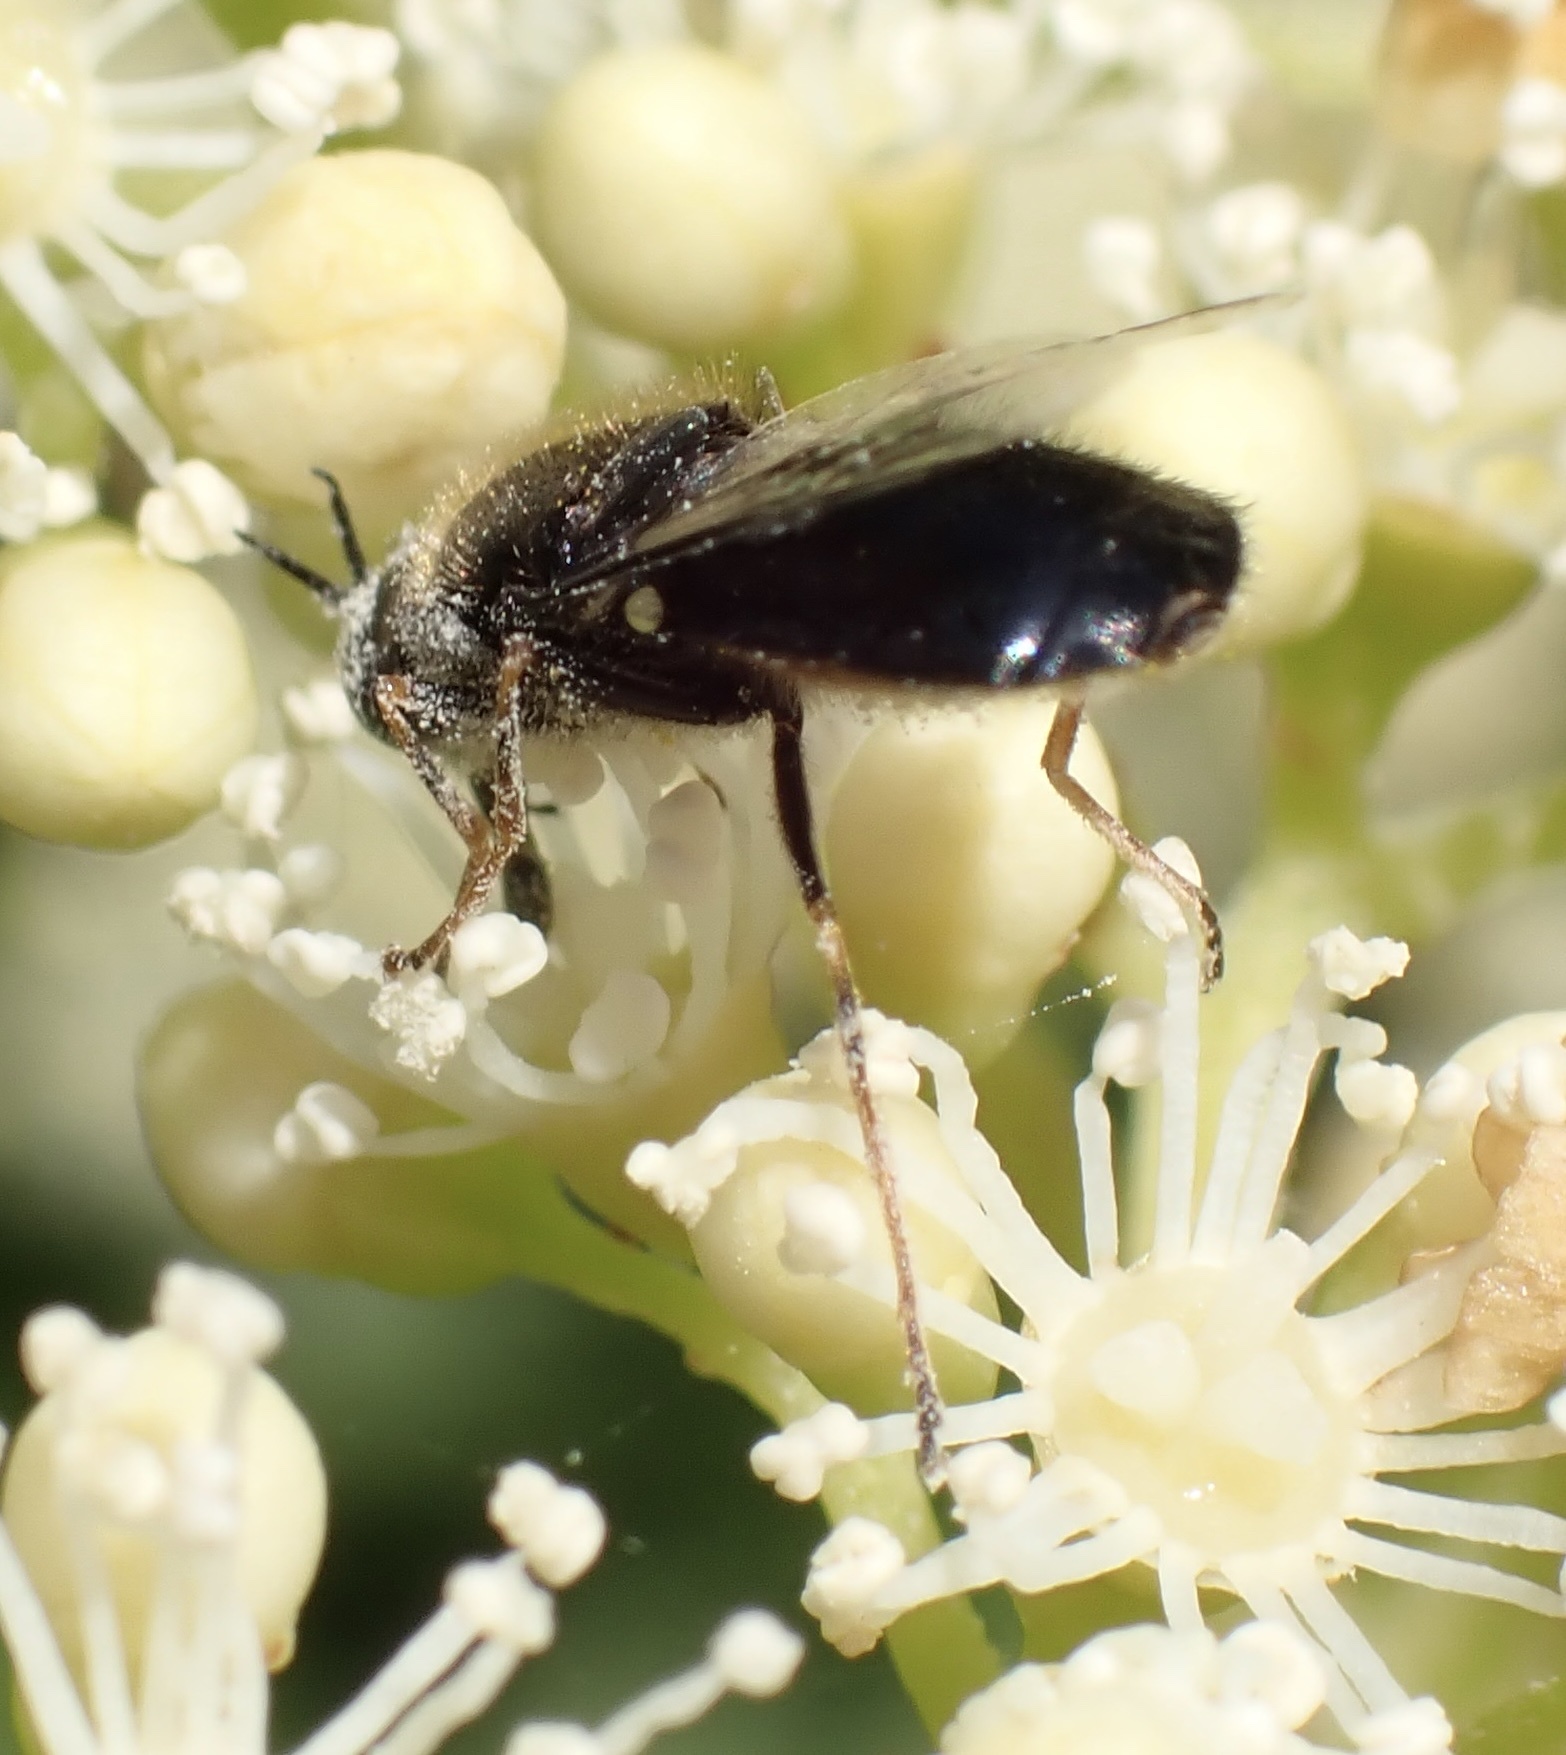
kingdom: Animalia
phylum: Arthropoda
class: Insecta
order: Diptera
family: Stratiomyidae
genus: Odontomyia
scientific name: Odontomyia tigrina
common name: Black colonel
